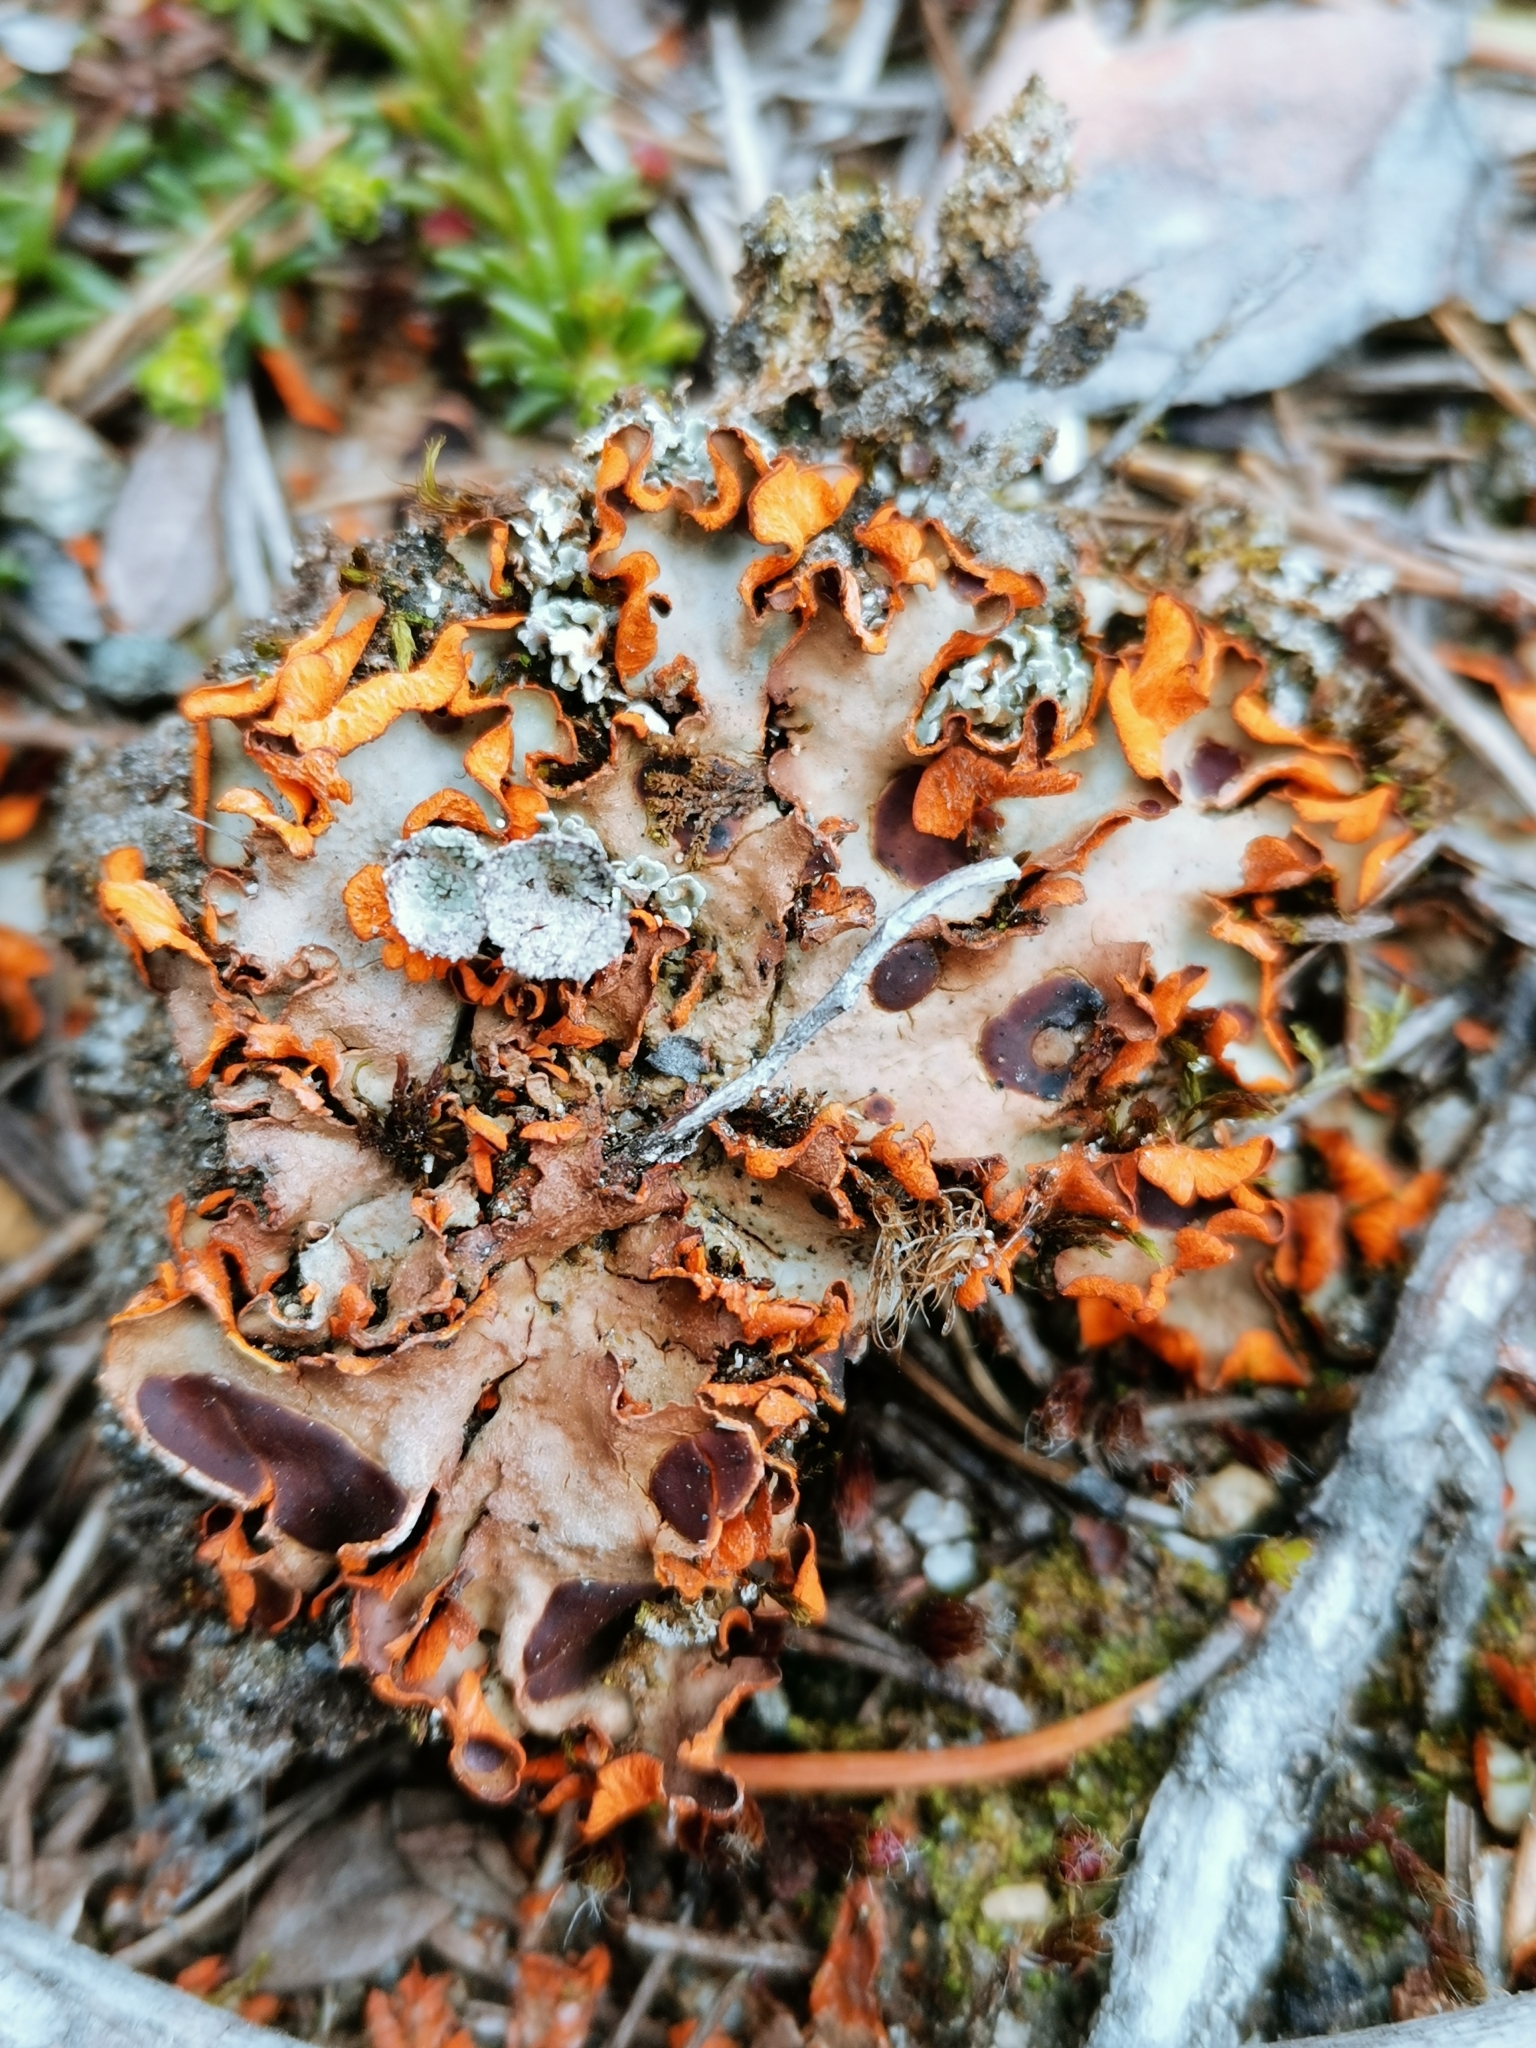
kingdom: Fungi
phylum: Ascomycota
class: Lecanoromycetes
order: Peltigerales
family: Peltigeraceae
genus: Solorina
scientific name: Solorina crocea
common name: Mountain saffron
